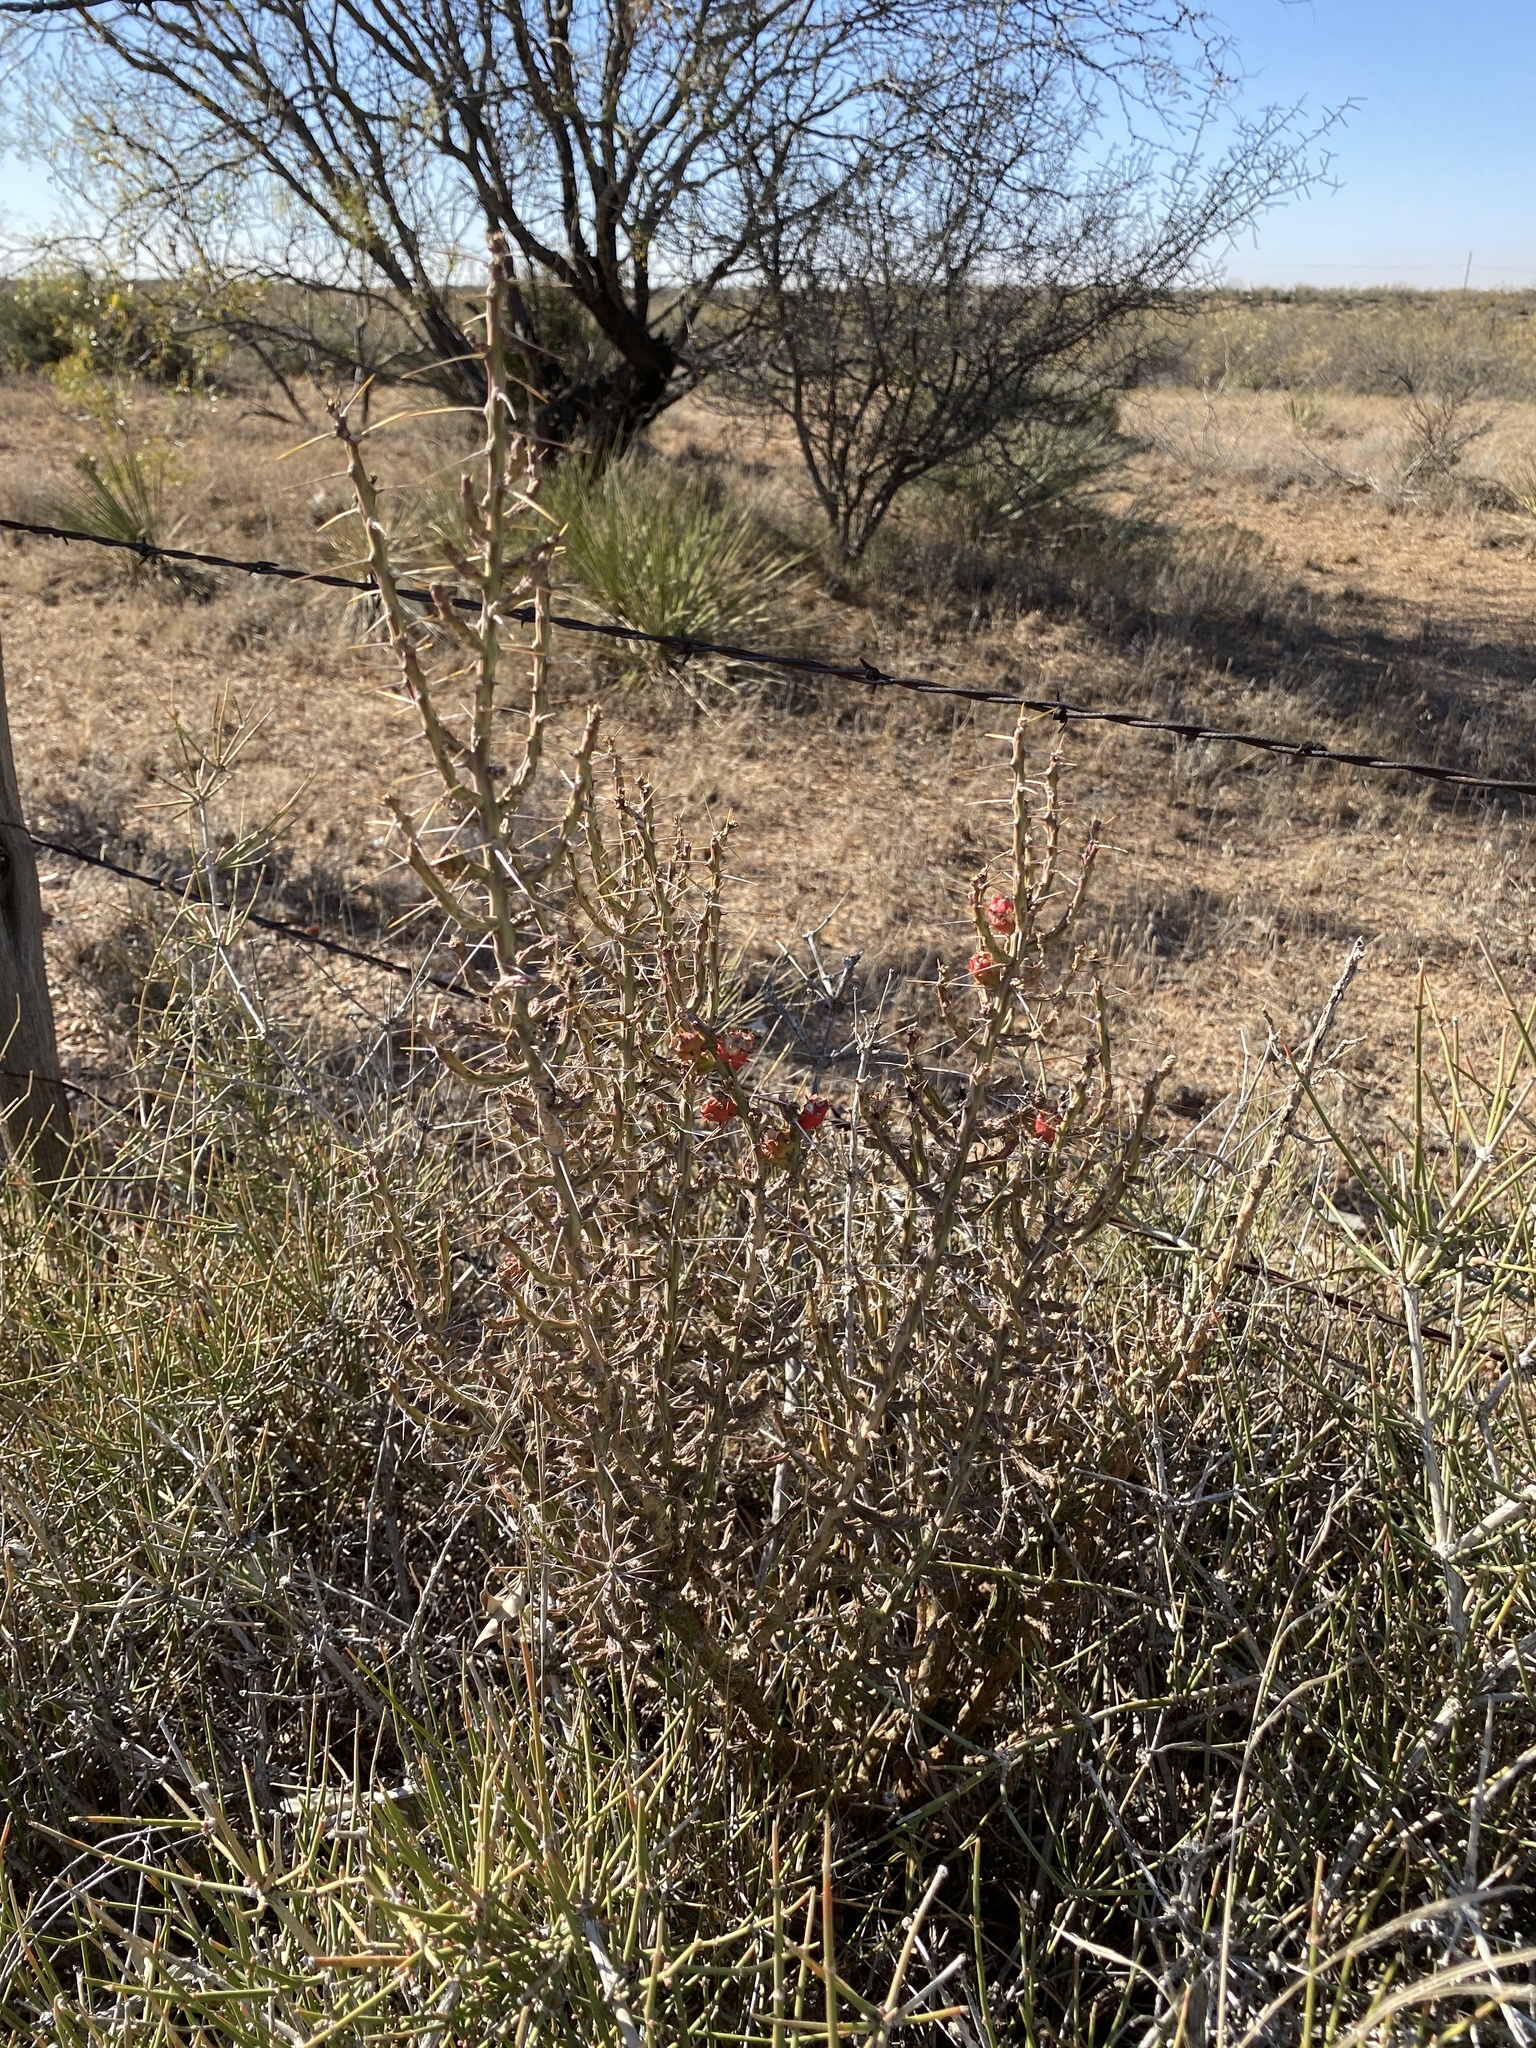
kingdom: Plantae
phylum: Tracheophyta
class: Magnoliopsida
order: Caryophyllales
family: Cactaceae
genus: Cylindropuntia
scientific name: Cylindropuntia leptocaulis
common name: Christmas cactus
